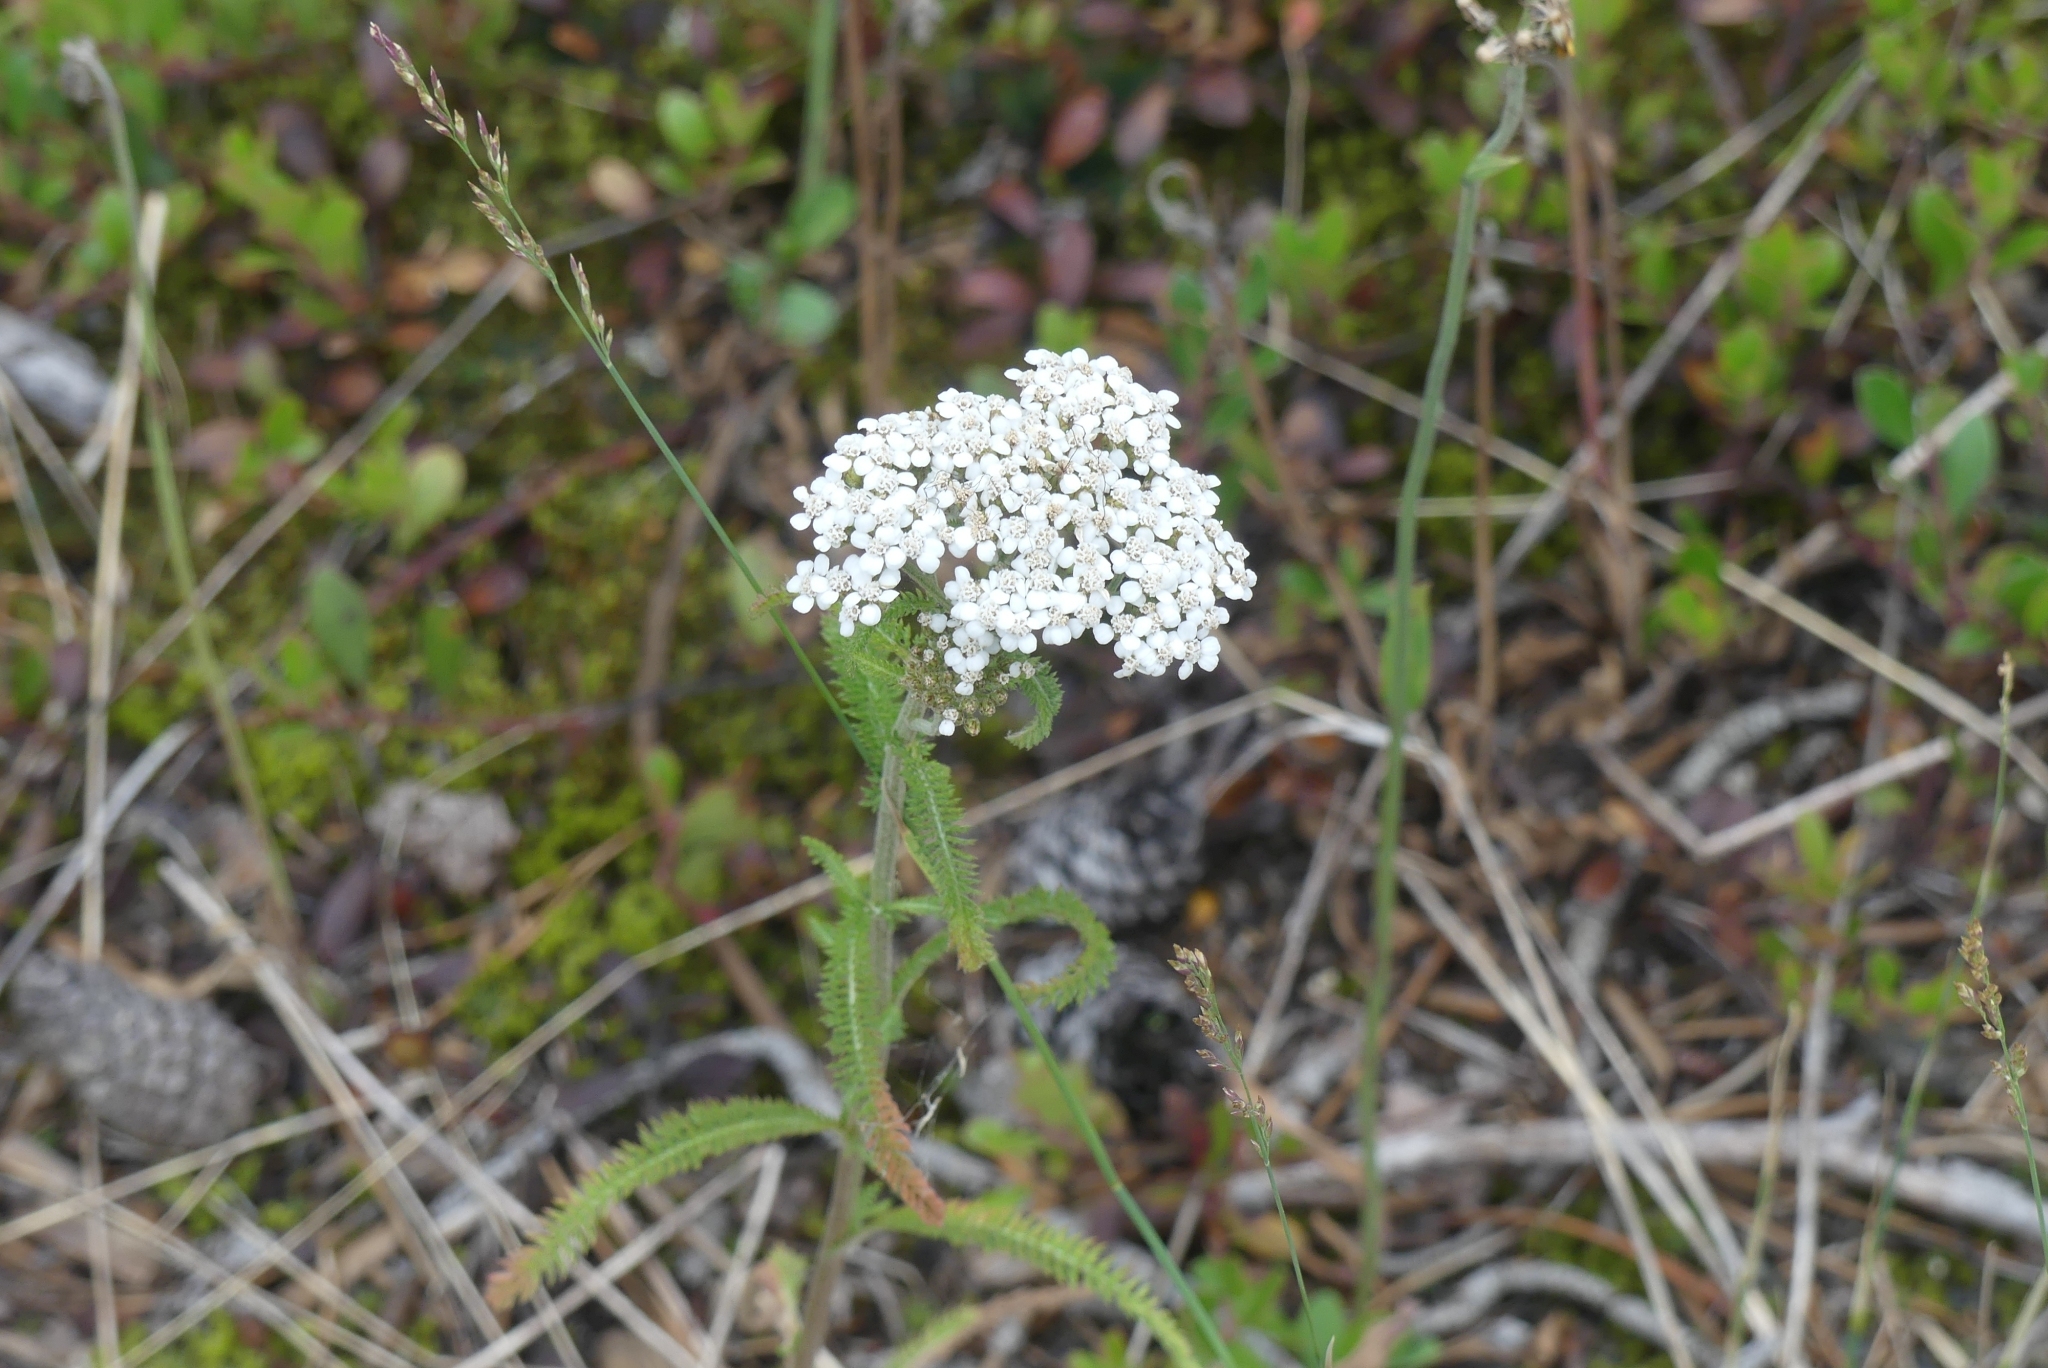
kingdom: Plantae
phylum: Tracheophyta
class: Magnoliopsida
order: Asterales
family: Asteraceae
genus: Achillea
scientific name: Achillea millefolium
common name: Yarrow
